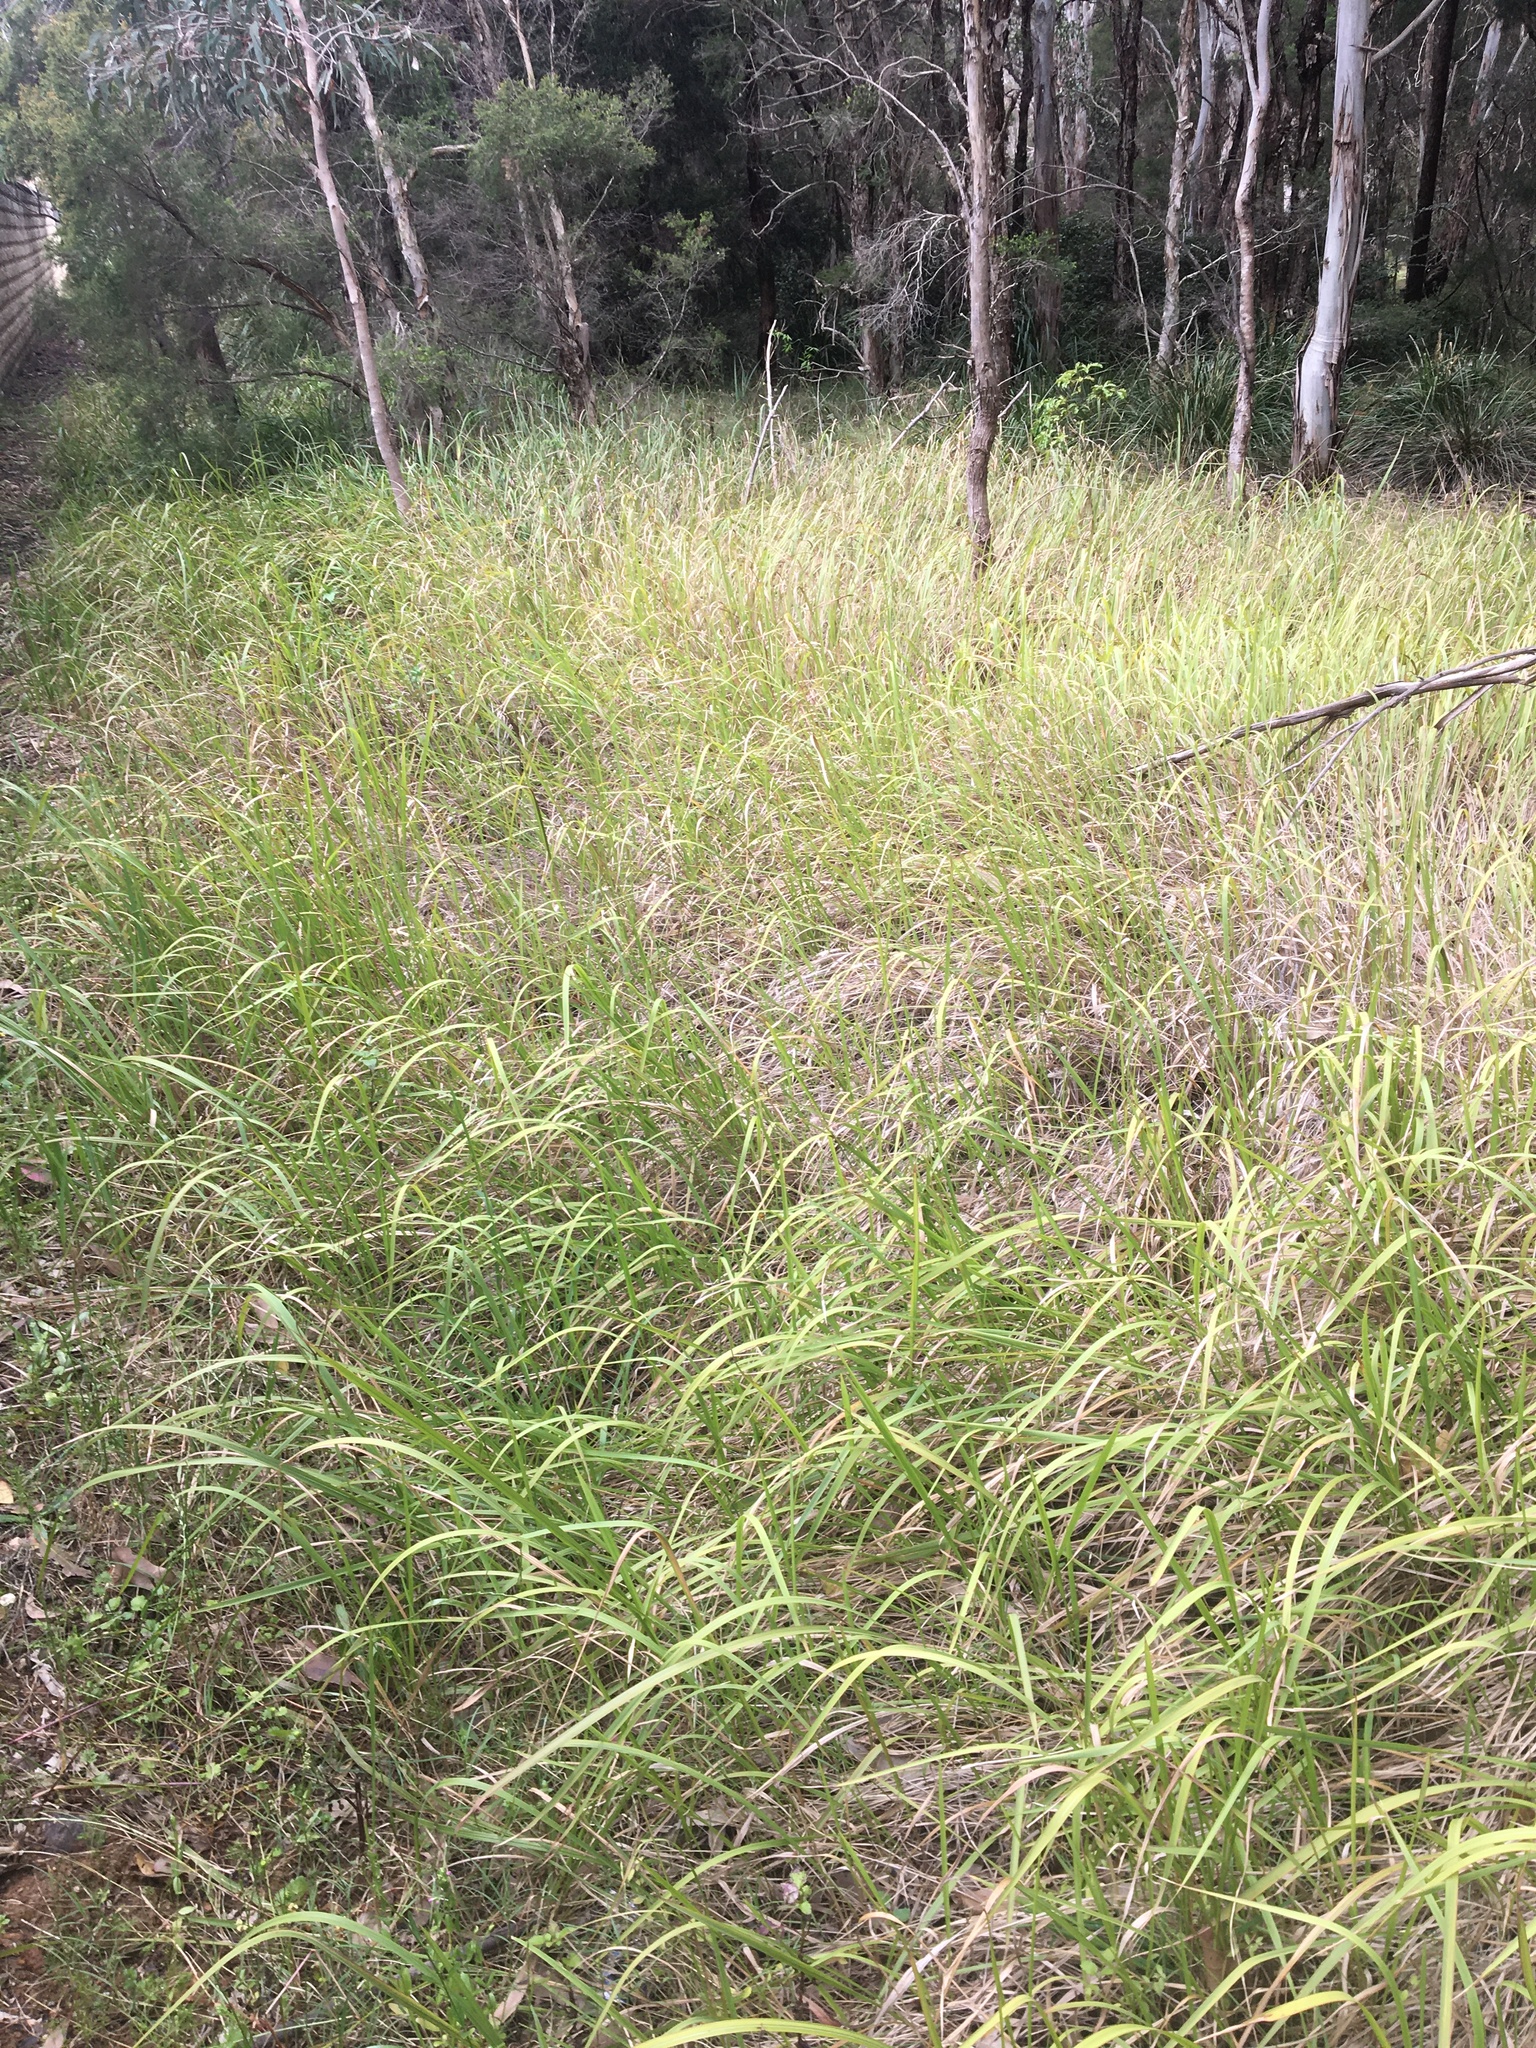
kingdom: Plantae
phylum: Tracheophyta
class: Liliopsida
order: Poales
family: Poaceae
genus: Imperata
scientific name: Imperata cylindrica
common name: Cogongrass
